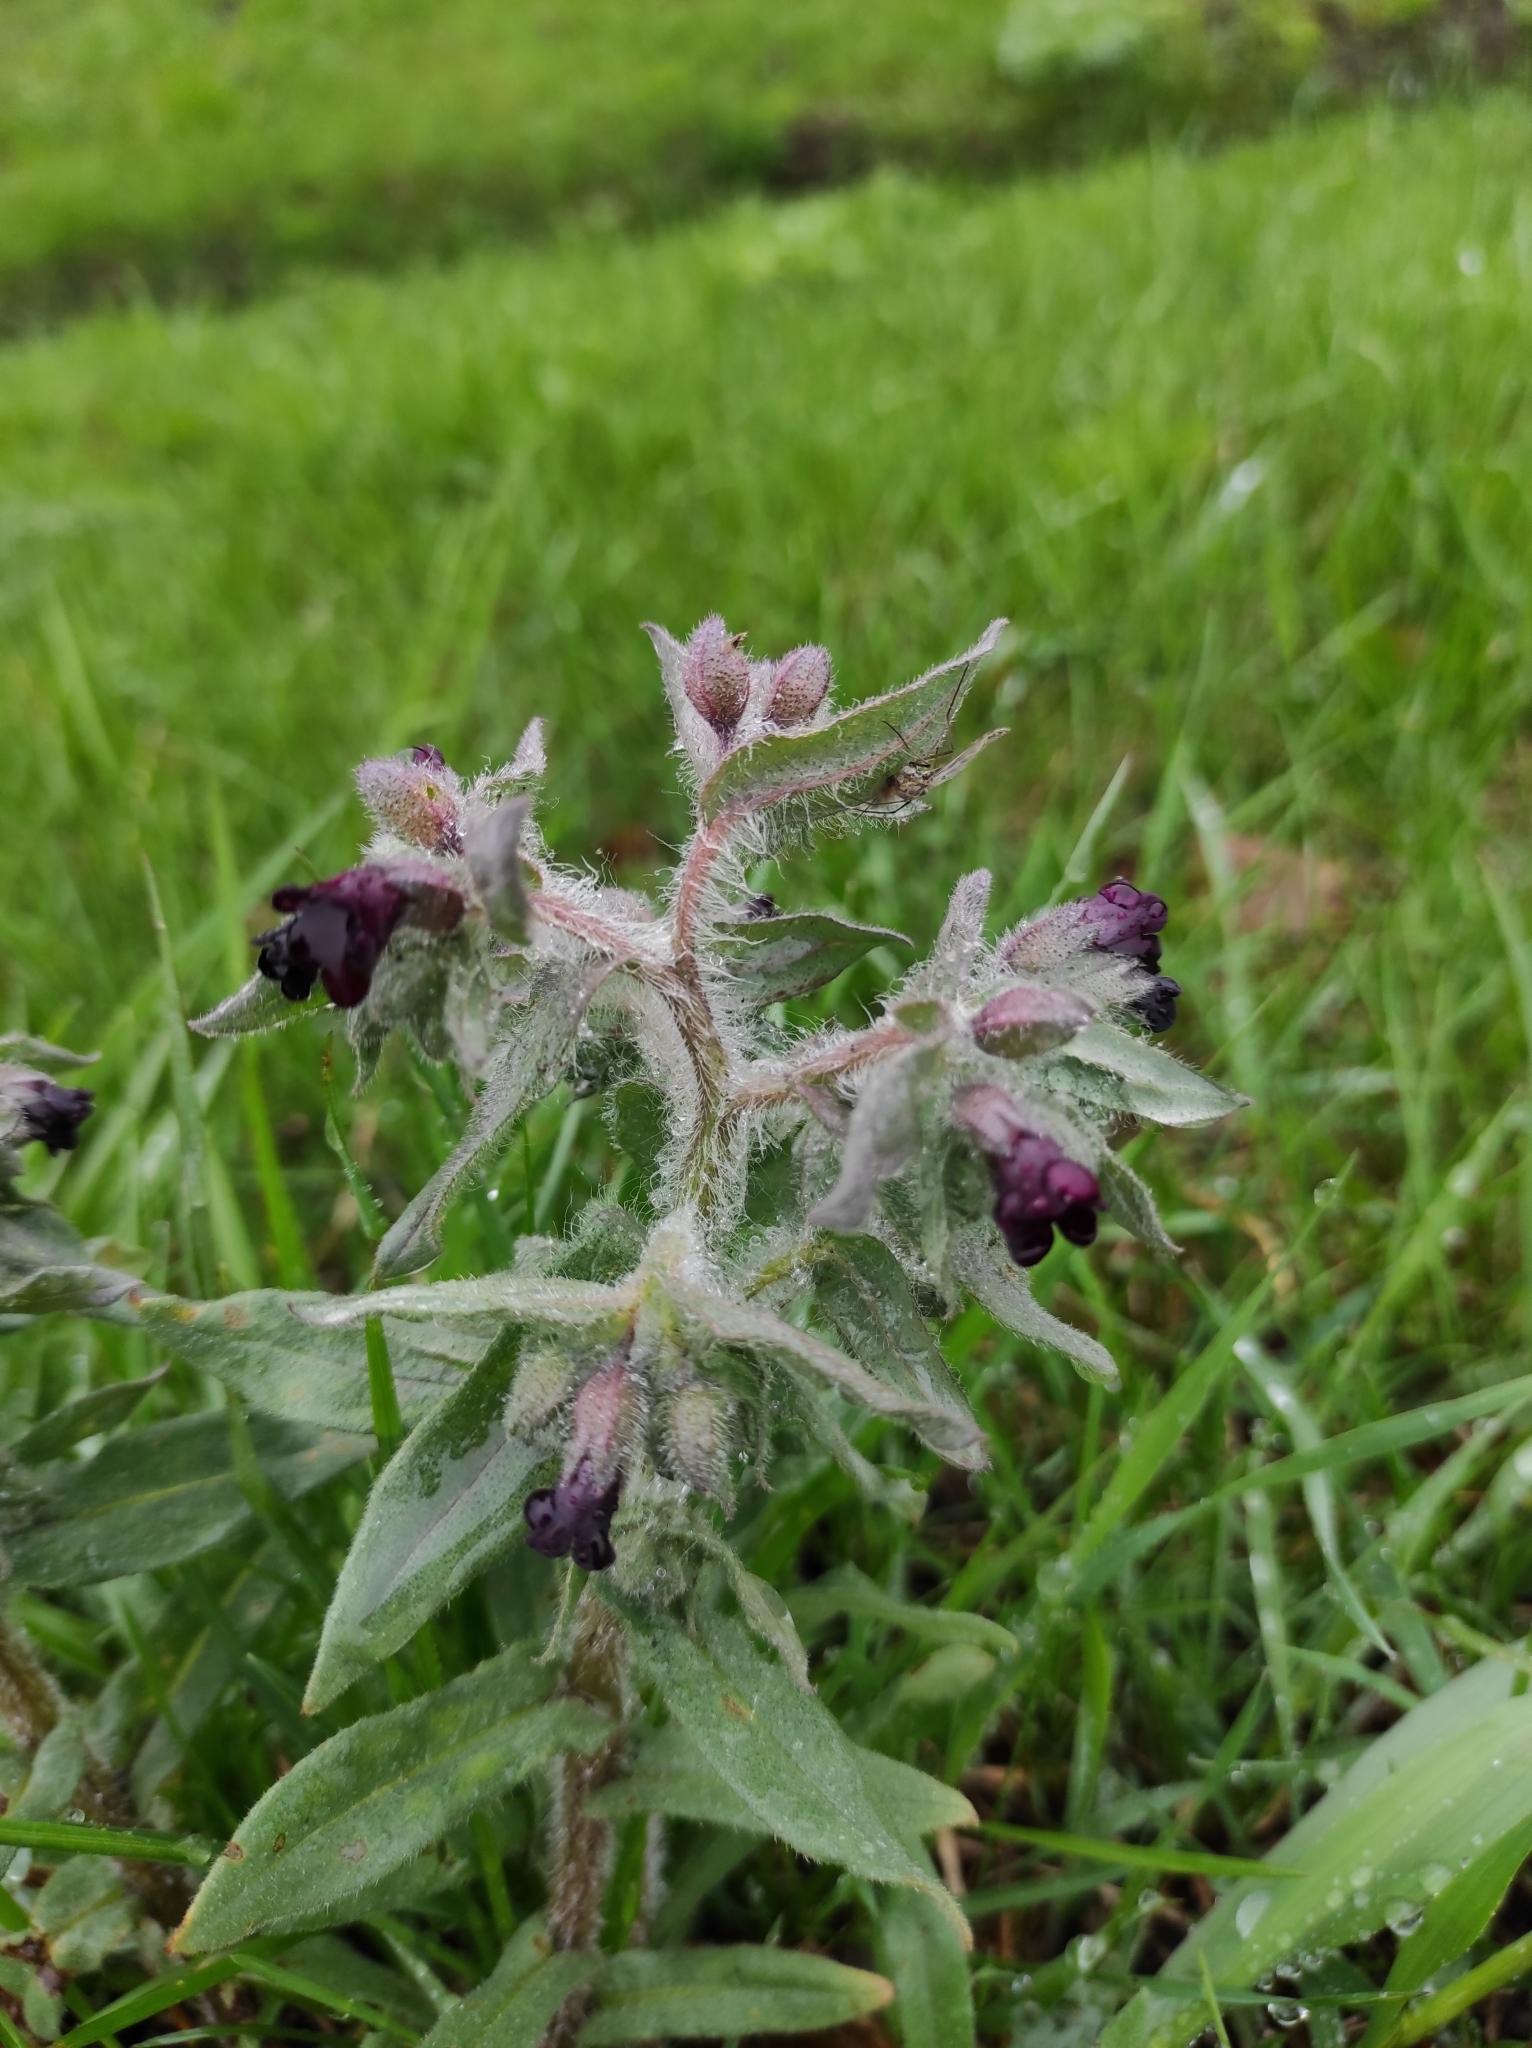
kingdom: Plantae
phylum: Tracheophyta
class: Magnoliopsida
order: Boraginales
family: Boraginaceae
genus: Nonea
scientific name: Nonea pulla
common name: Brown nonea
